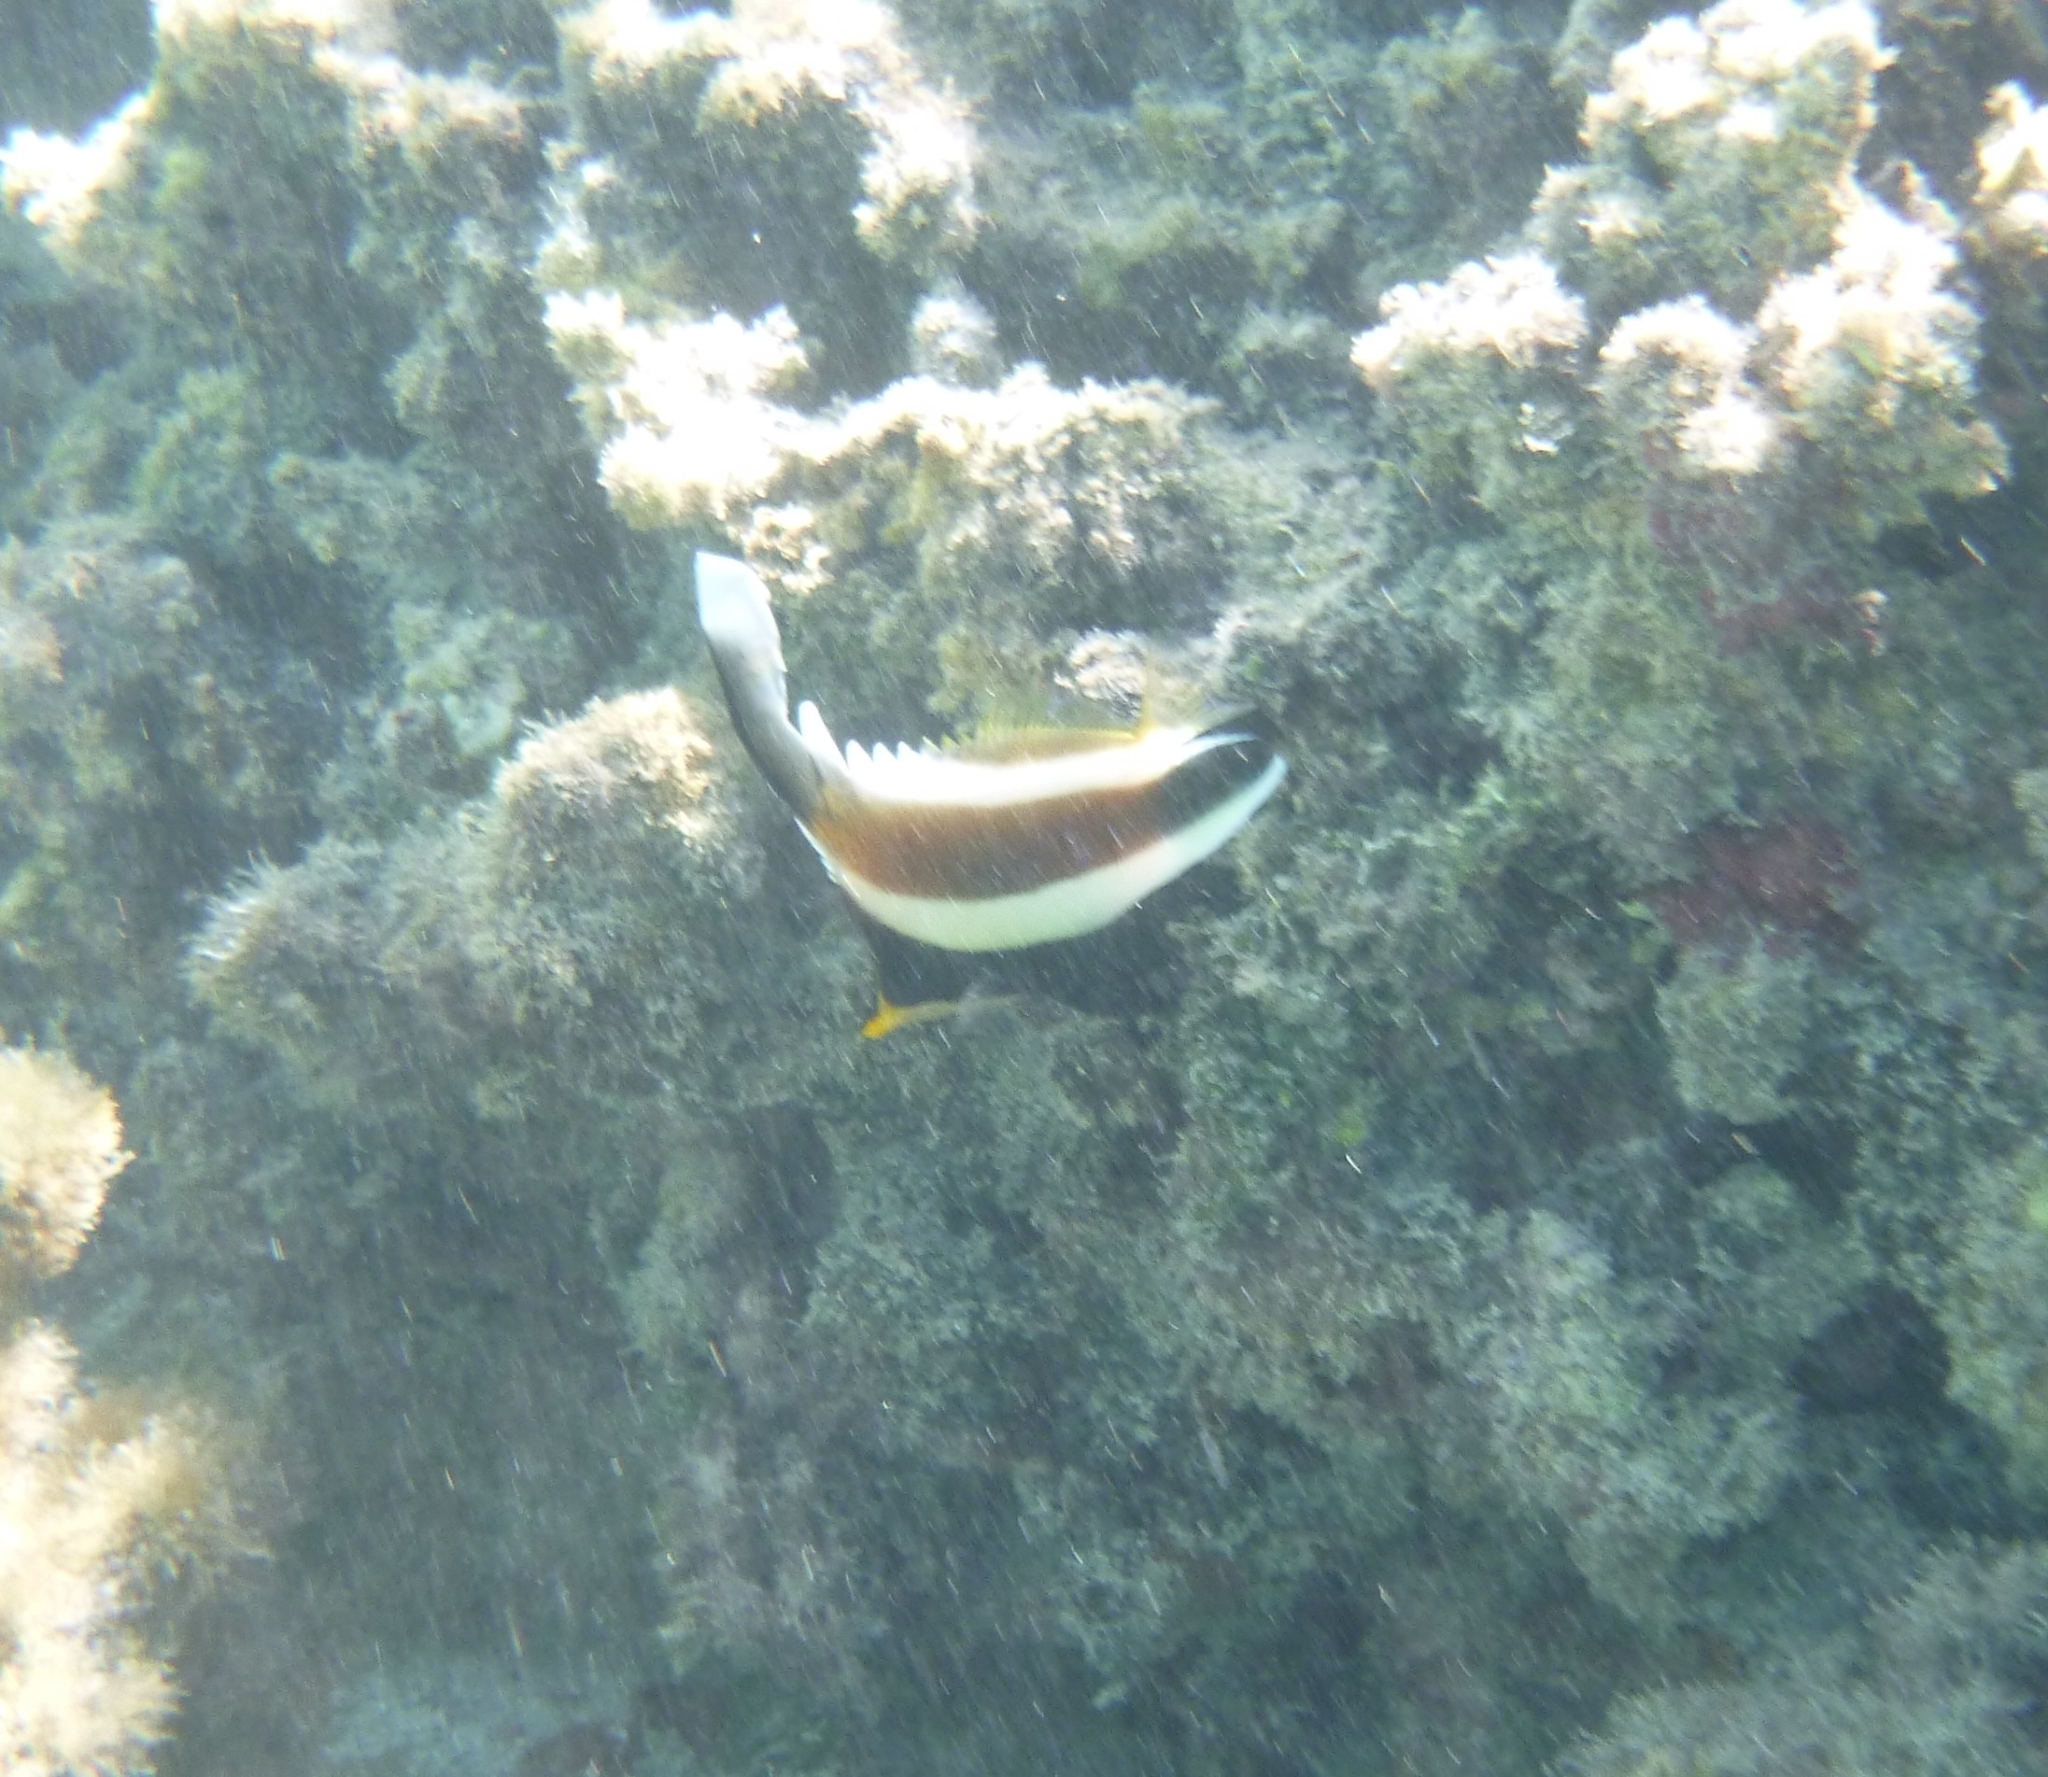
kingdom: Animalia
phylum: Chordata
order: Perciformes
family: Chaetodontidae
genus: Heniochus
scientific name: Heniochus chrysostomus
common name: Horned bannerfish
